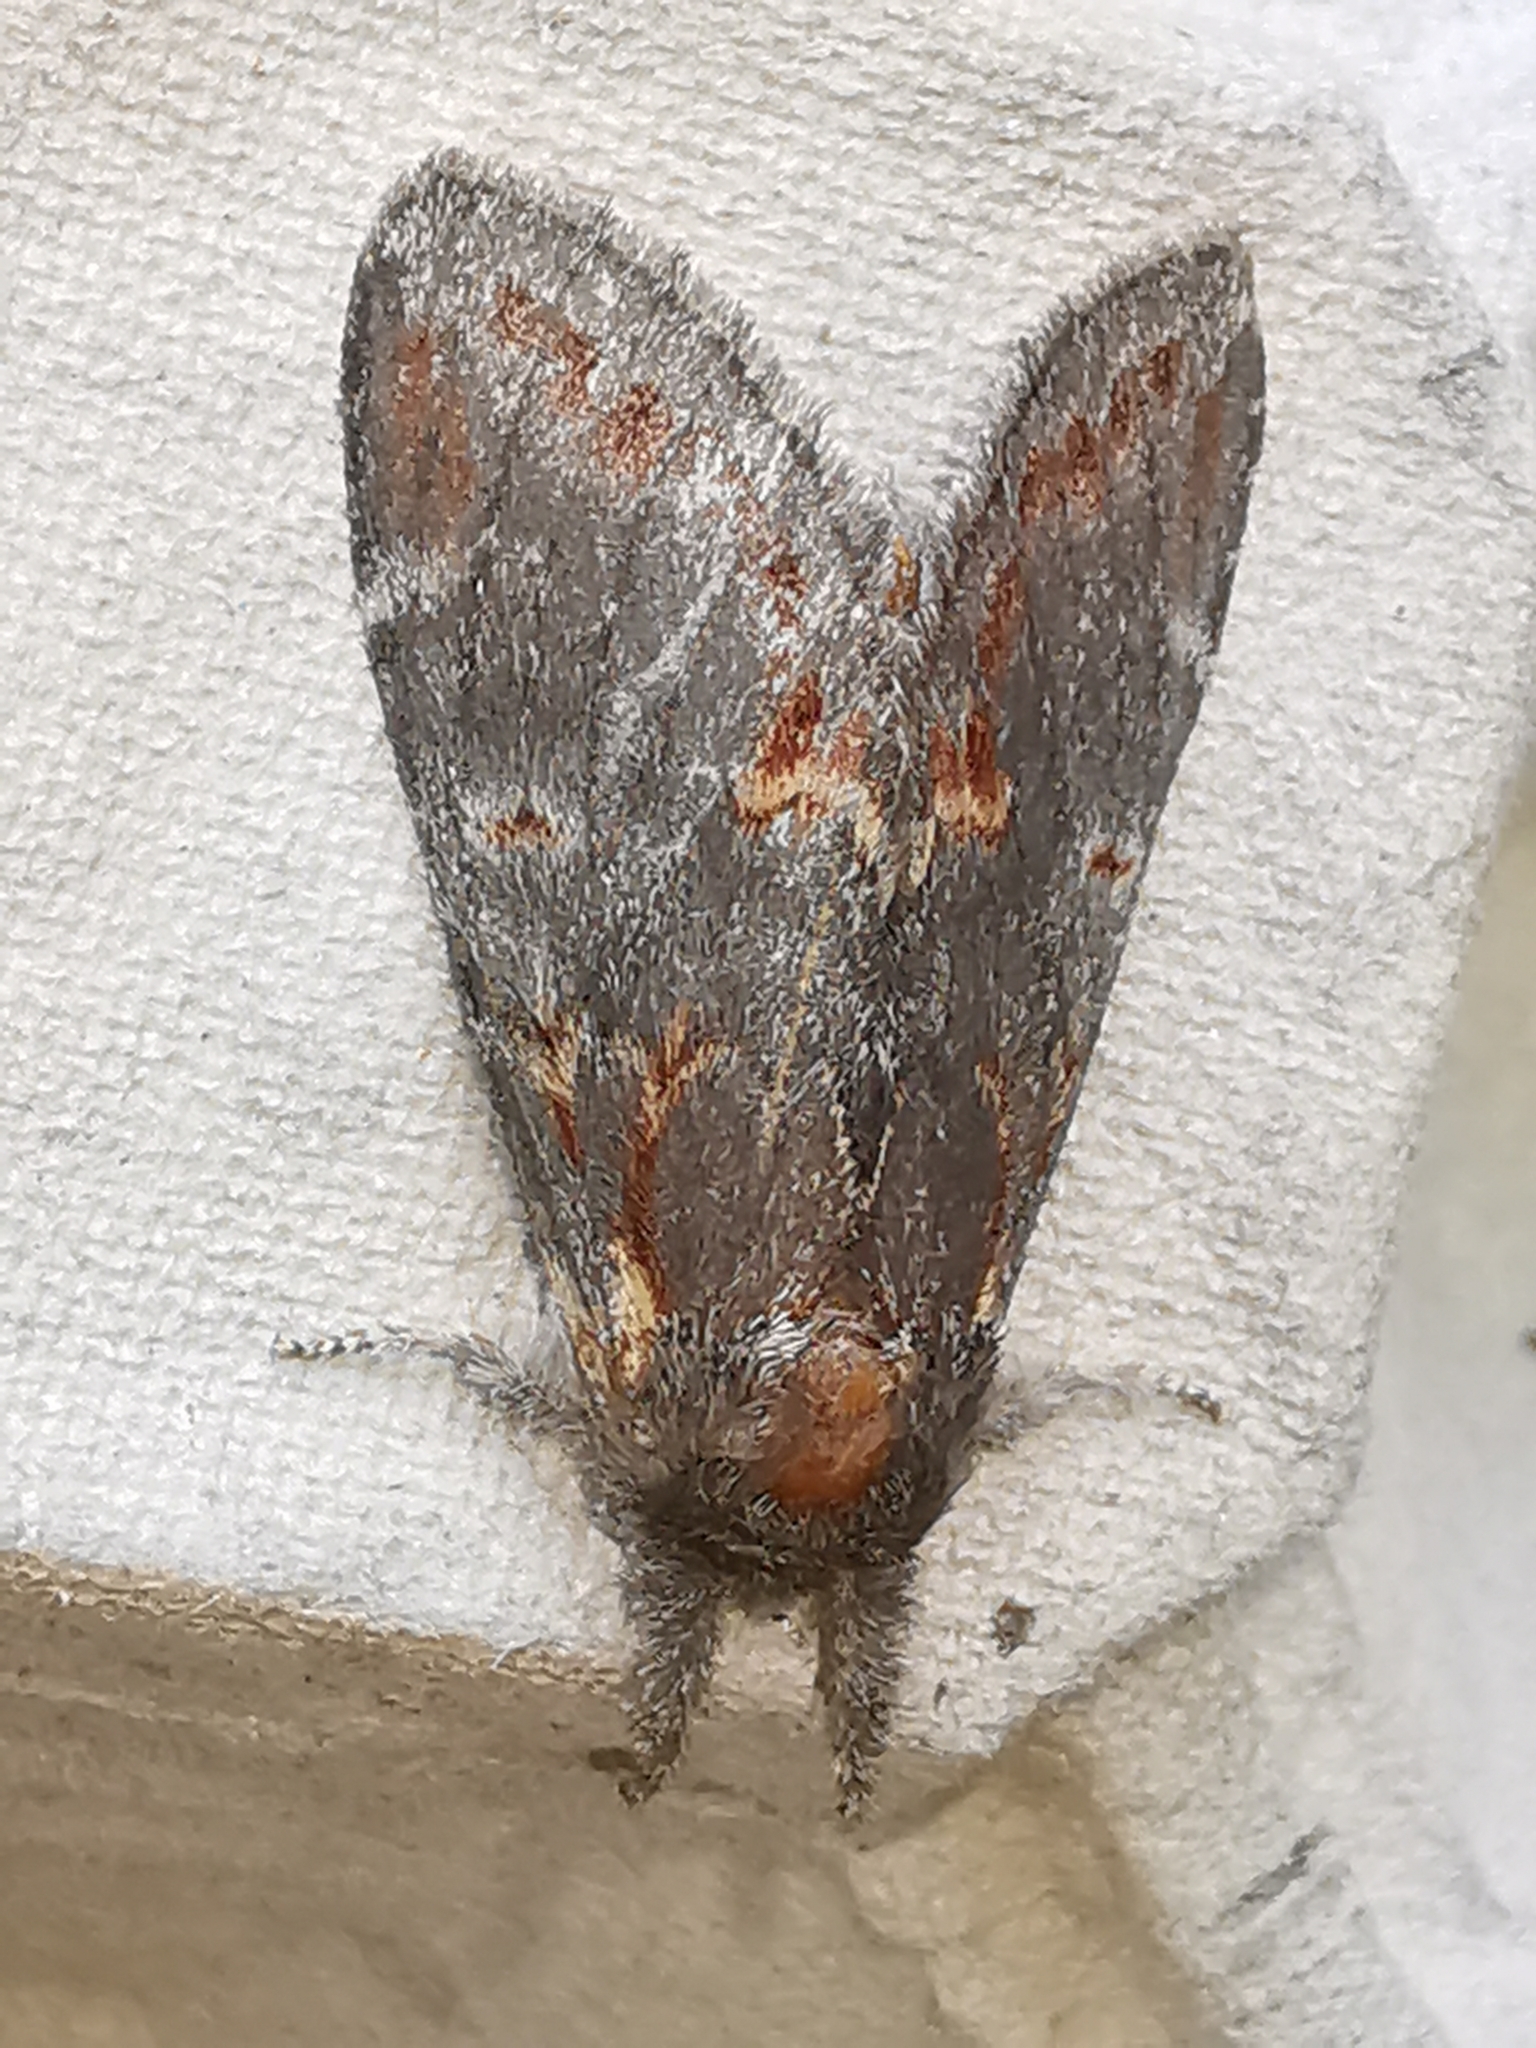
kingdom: Animalia
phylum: Arthropoda
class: Insecta
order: Lepidoptera
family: Notodontidae
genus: Notodonta
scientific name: Notodonta dromedarius
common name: Iron prominent
